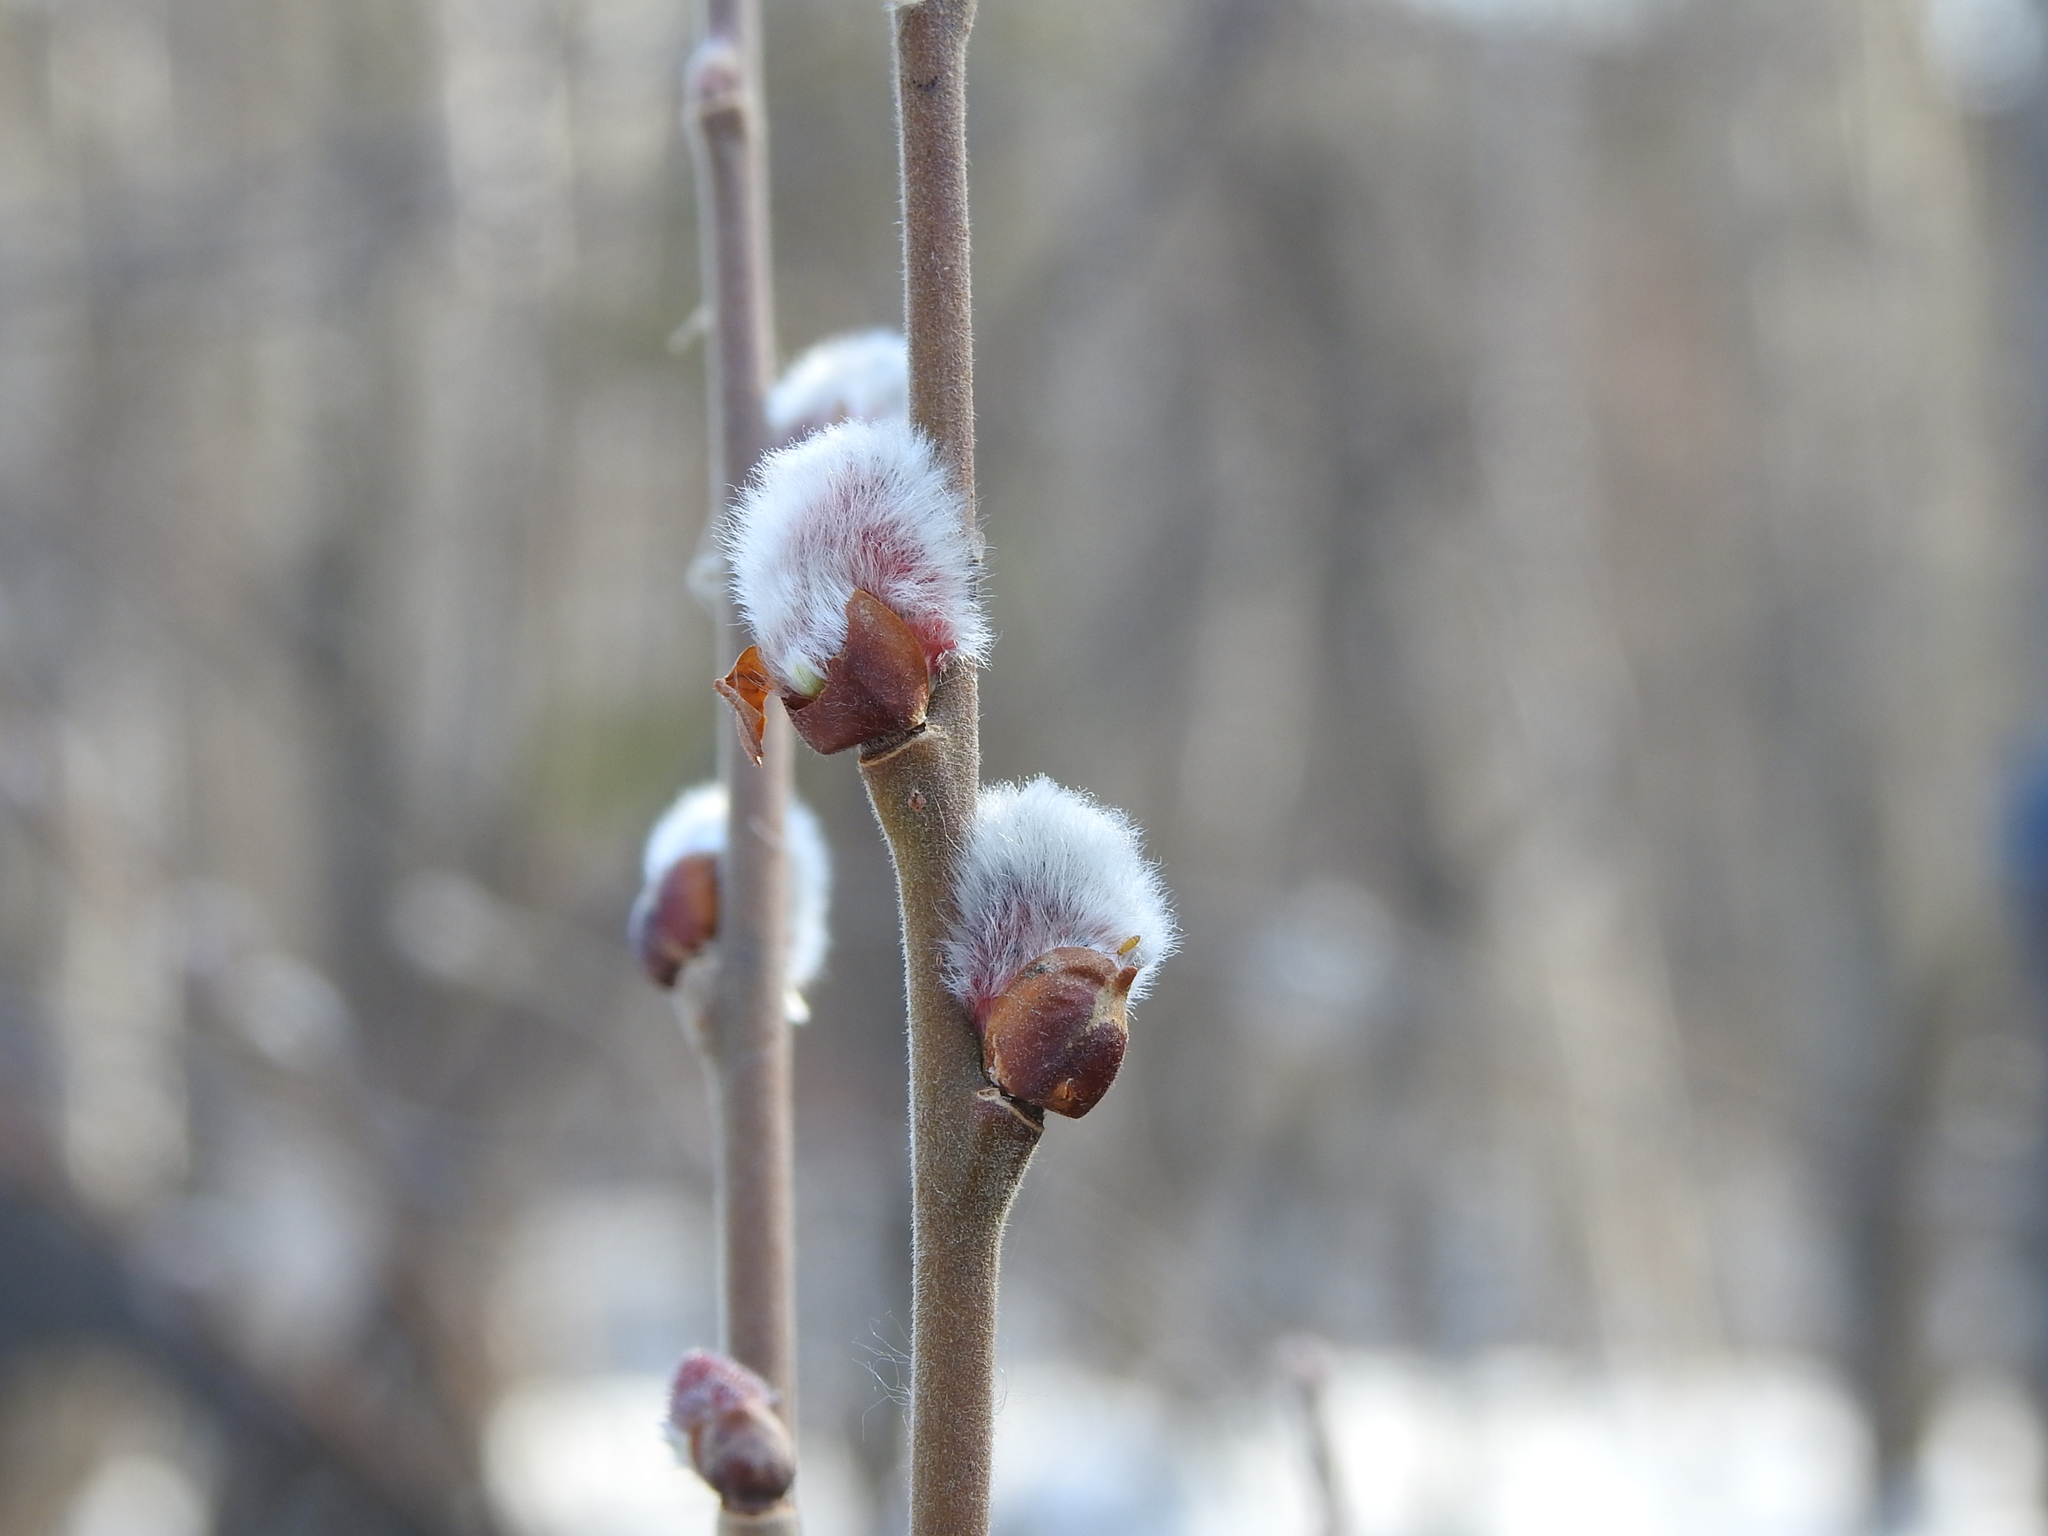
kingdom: Plantae
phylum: Tracheophyta
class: Magnoliopsida
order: Malpighiales
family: Salicaceae
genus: Salix
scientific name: Salix caprea
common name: Goat willow
